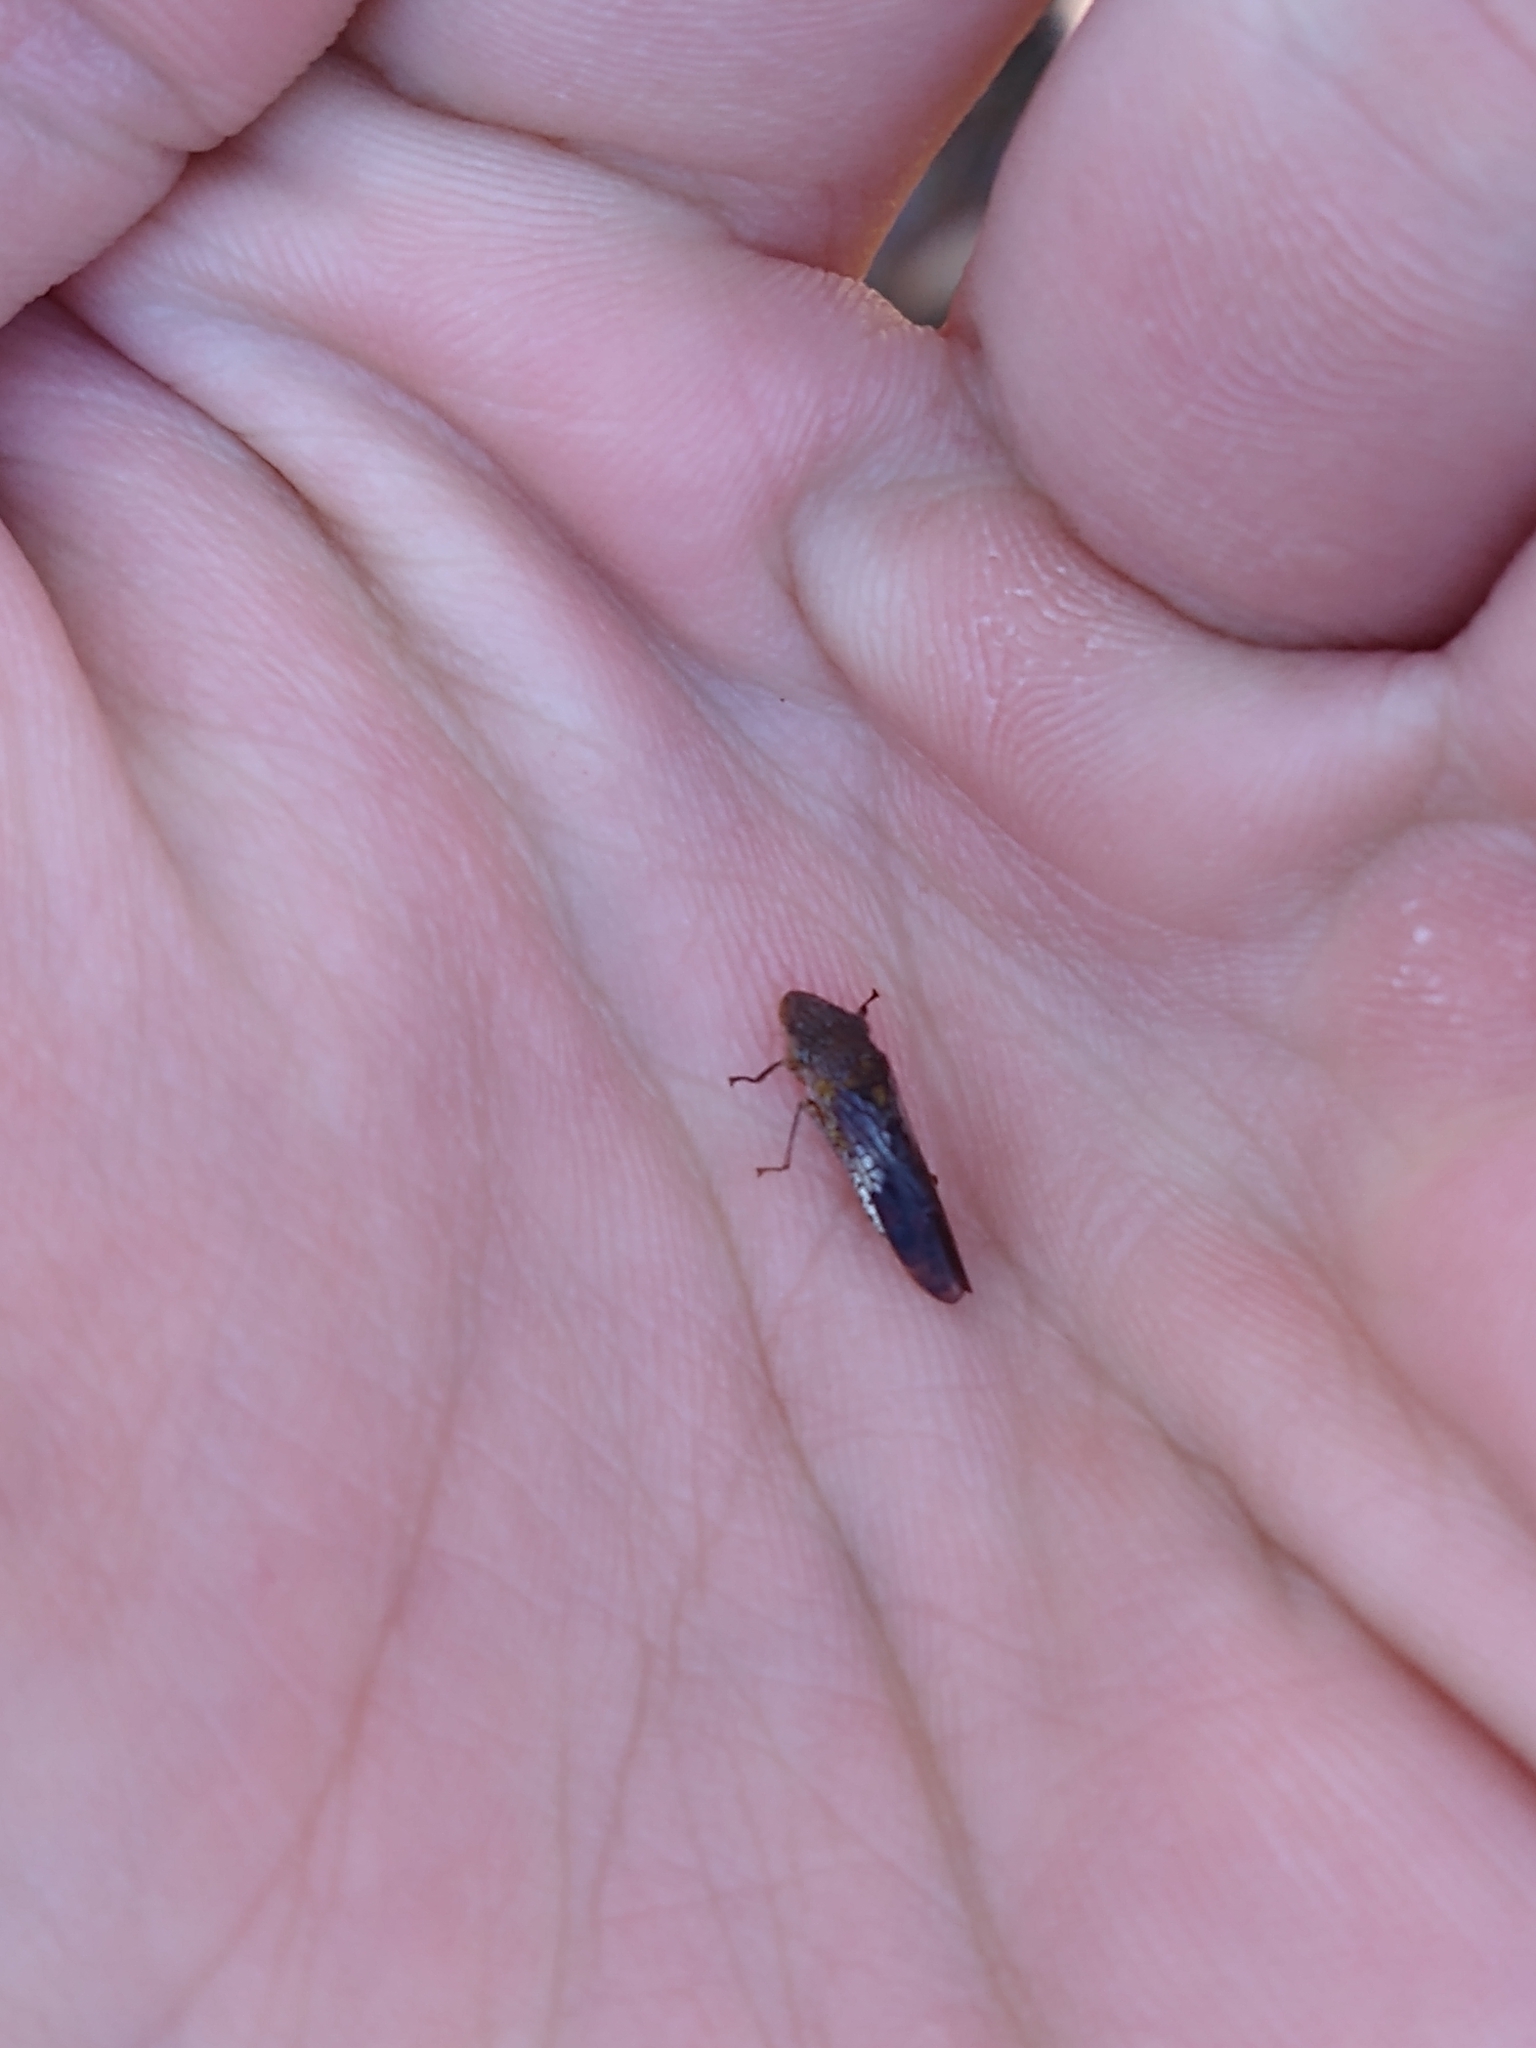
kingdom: Animalia
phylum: Arthropoda
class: Insecta
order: Hemiptera
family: Cicadellidae
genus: Homalodisca
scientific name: Homalodisca vitripennis
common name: Glassy-winged sharpshooter
